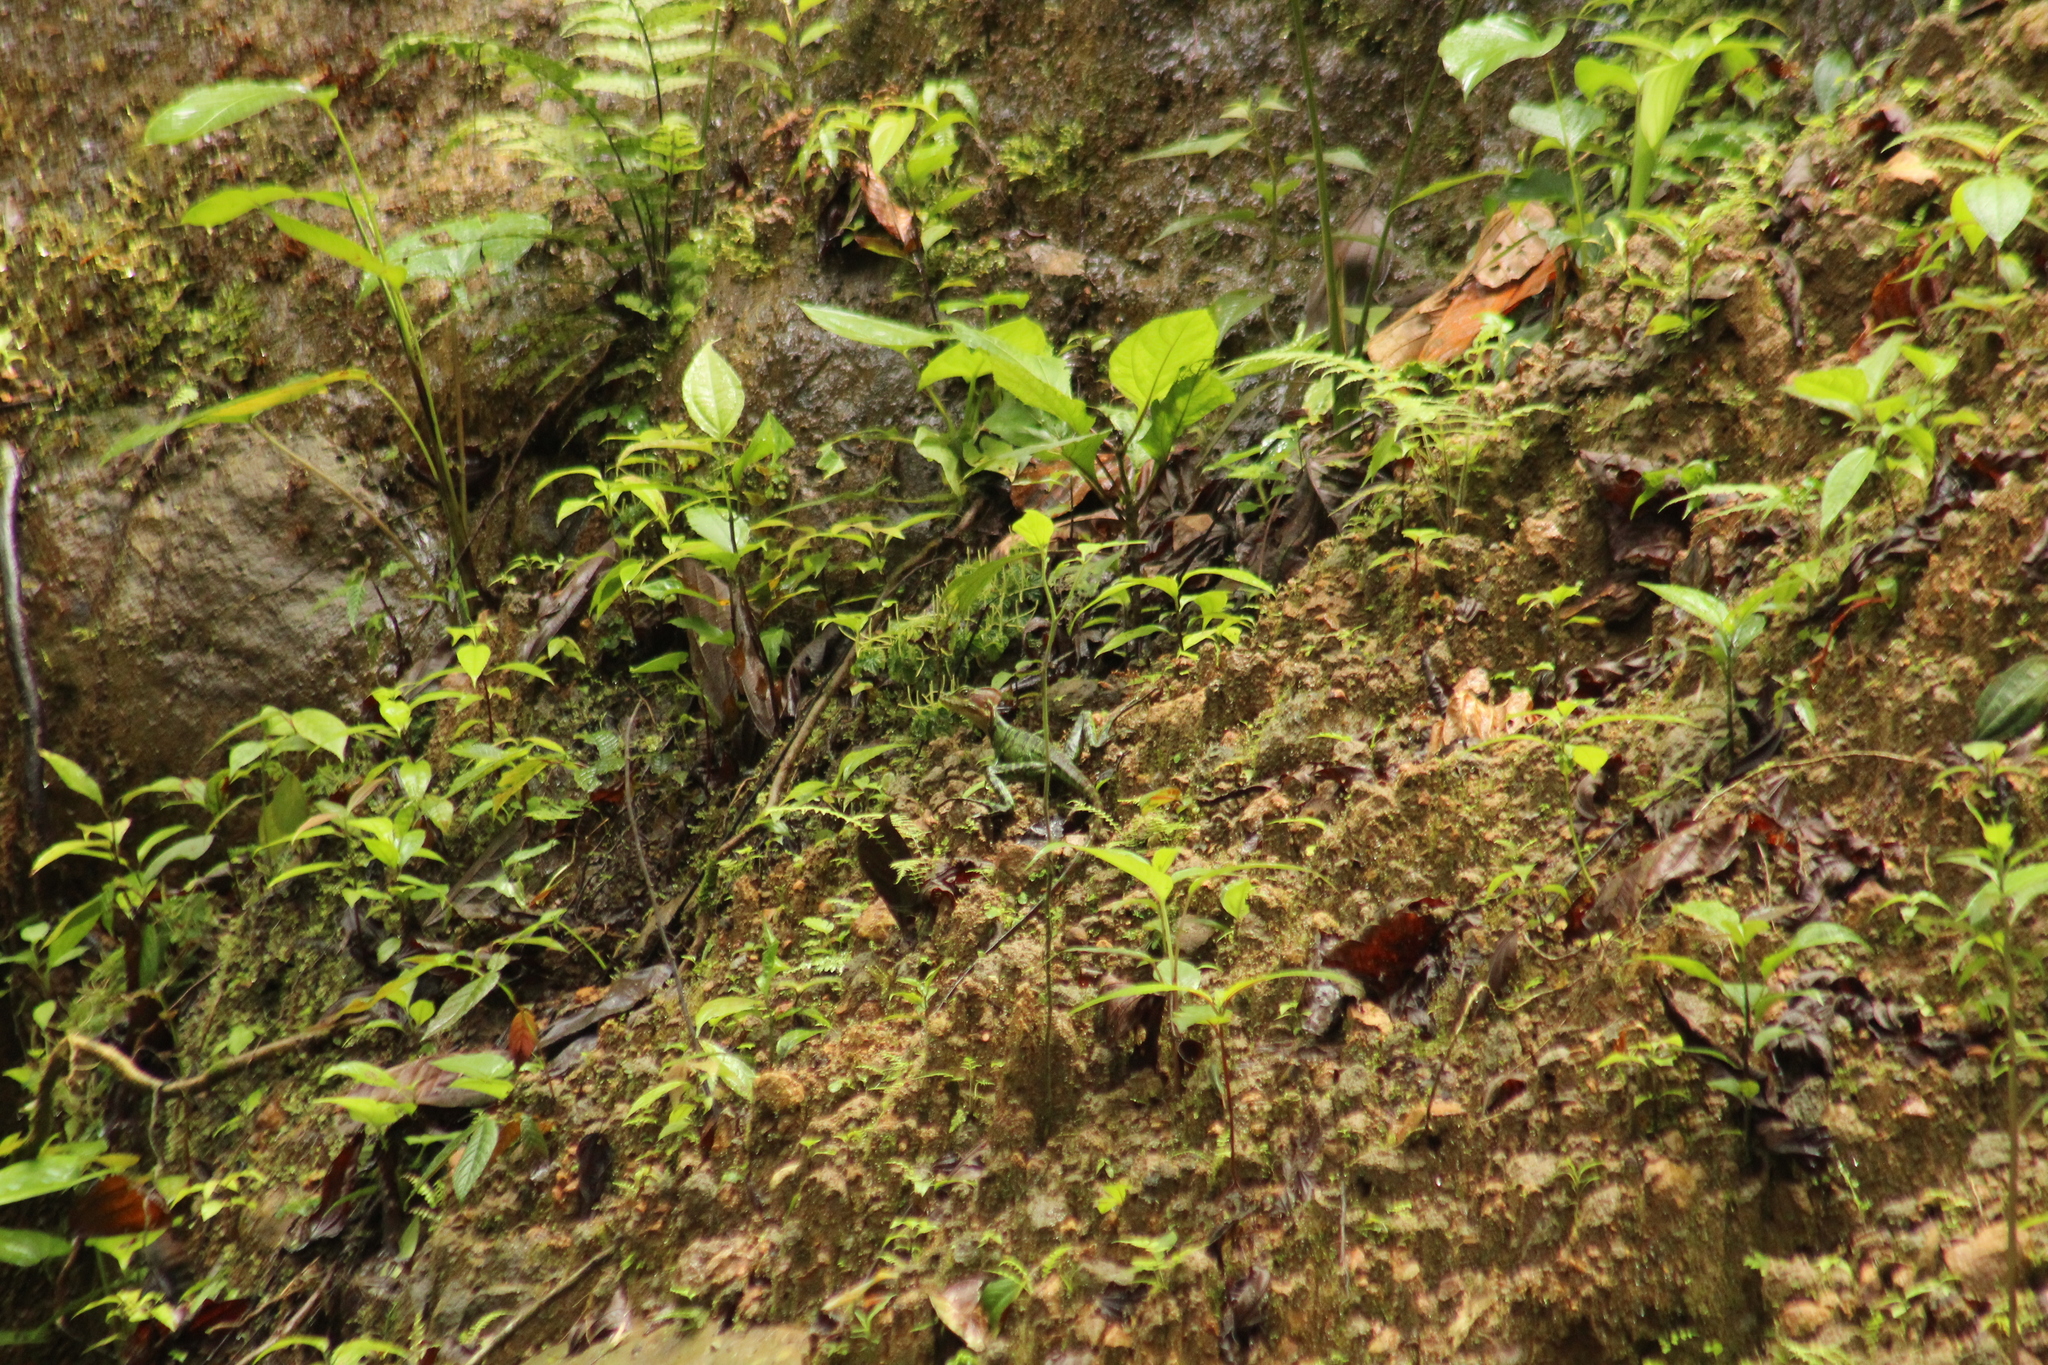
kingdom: Animalia
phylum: Chordata
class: Squamata
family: Corytophanidae
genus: Basiliscus
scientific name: Basiliscus galeritus
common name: Western basilisk
